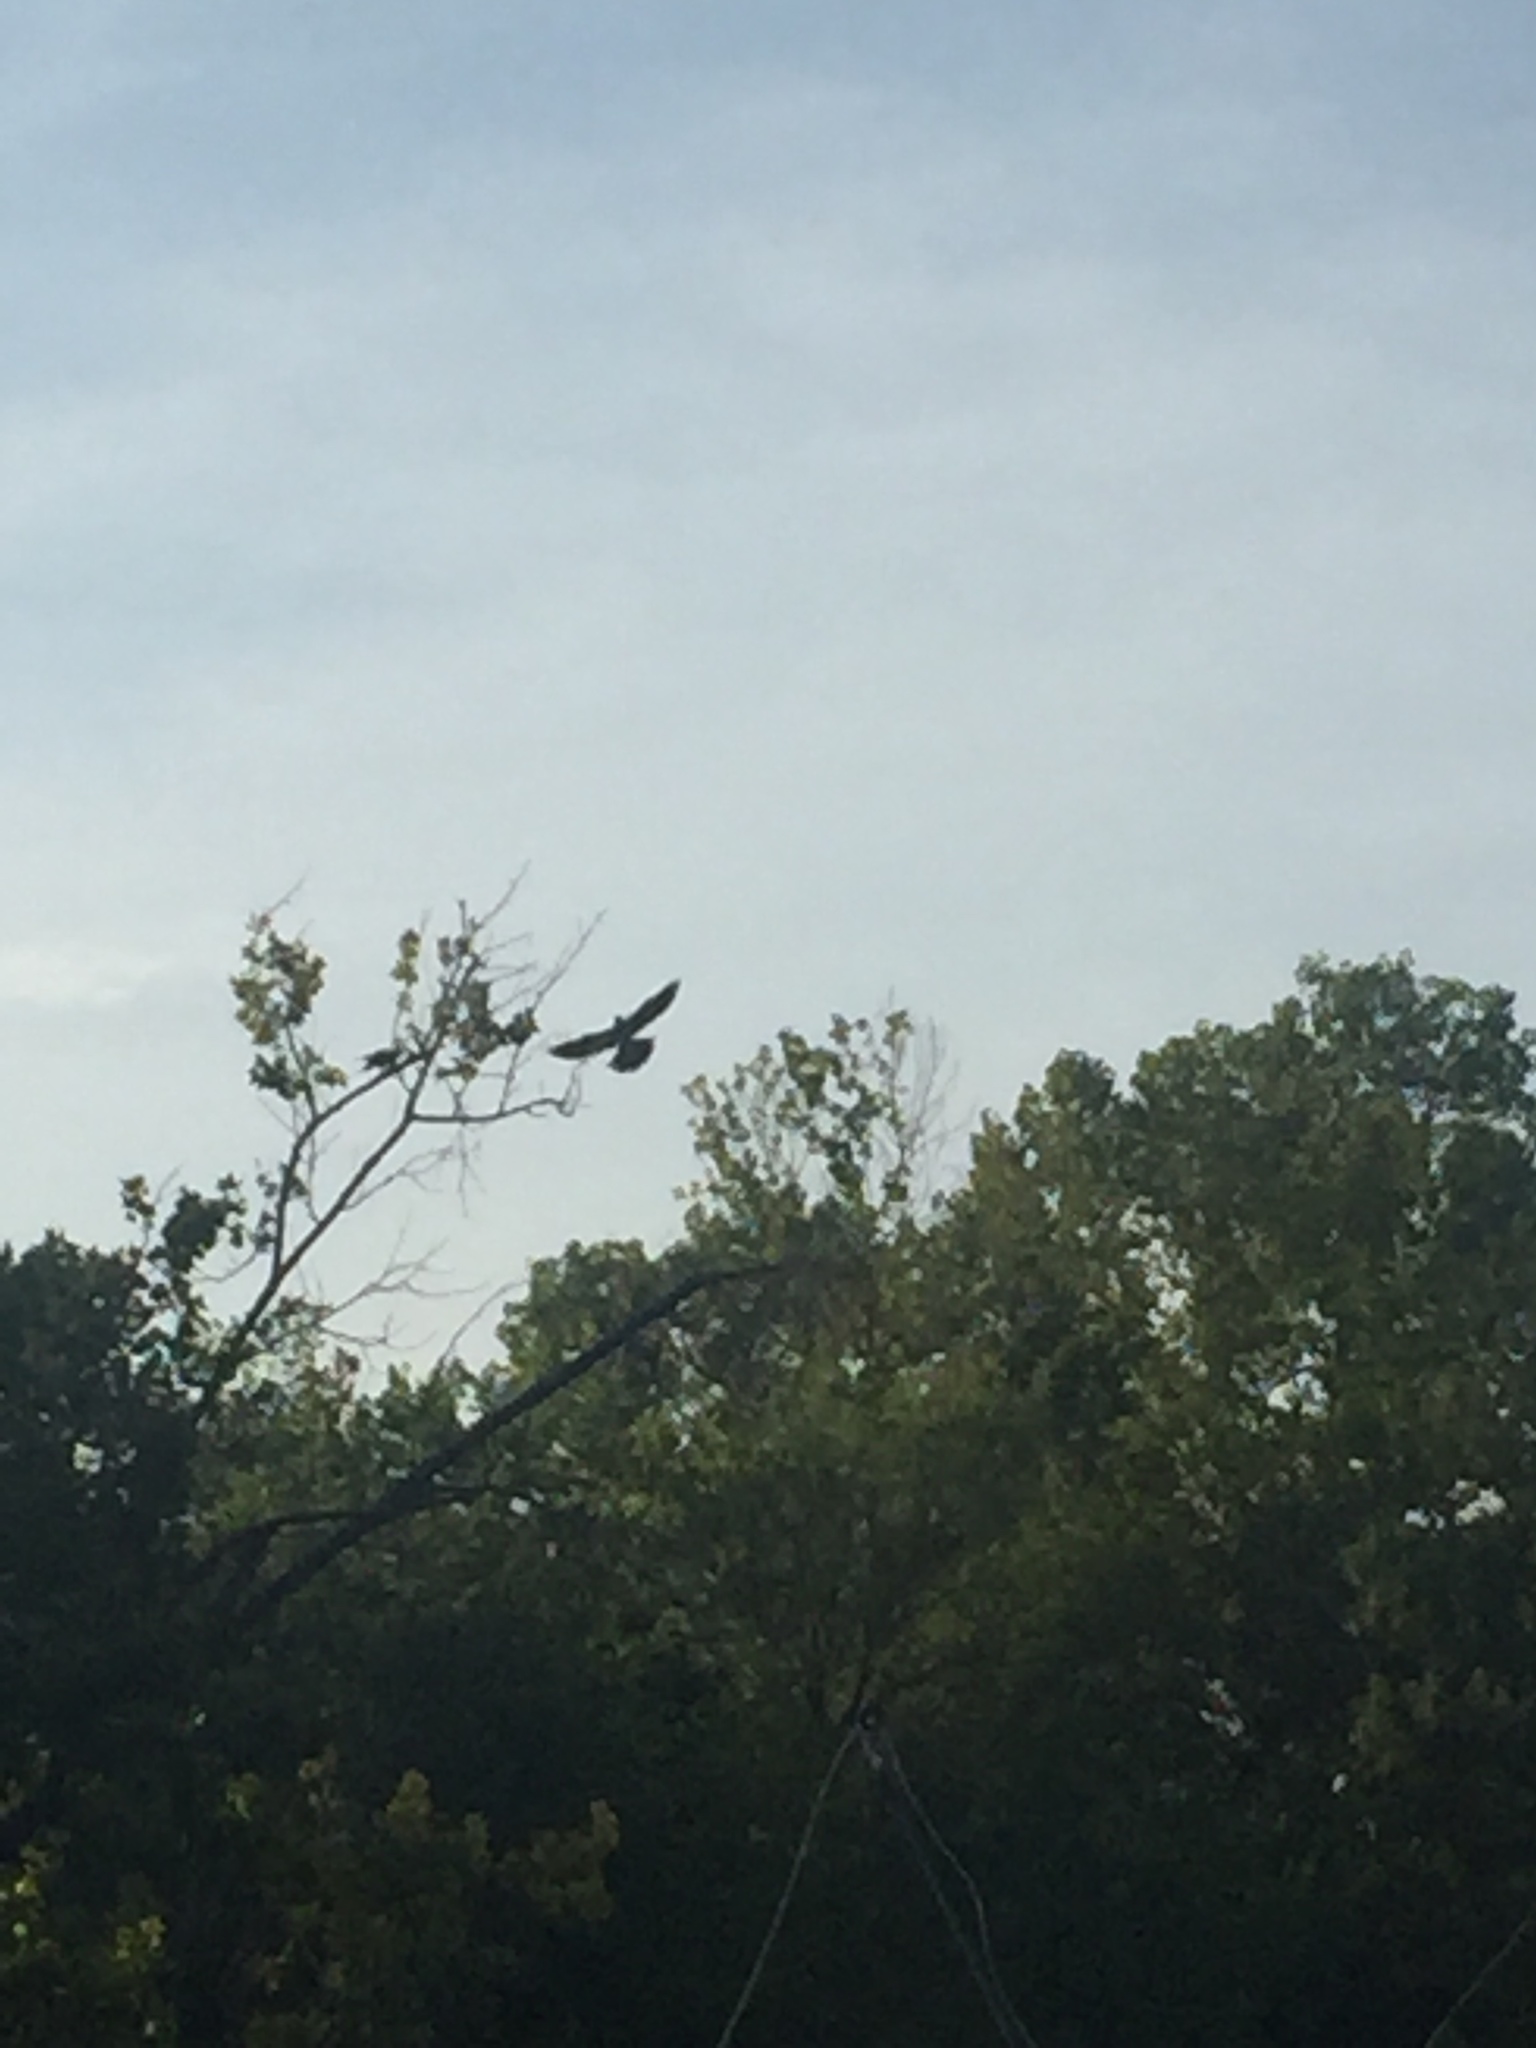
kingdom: Animalia
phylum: Chordata
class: Aves
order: Accipitriformes
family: Accipitridae
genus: Ictinia
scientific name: Ictinia mississippiensis
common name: Mississippi kite
